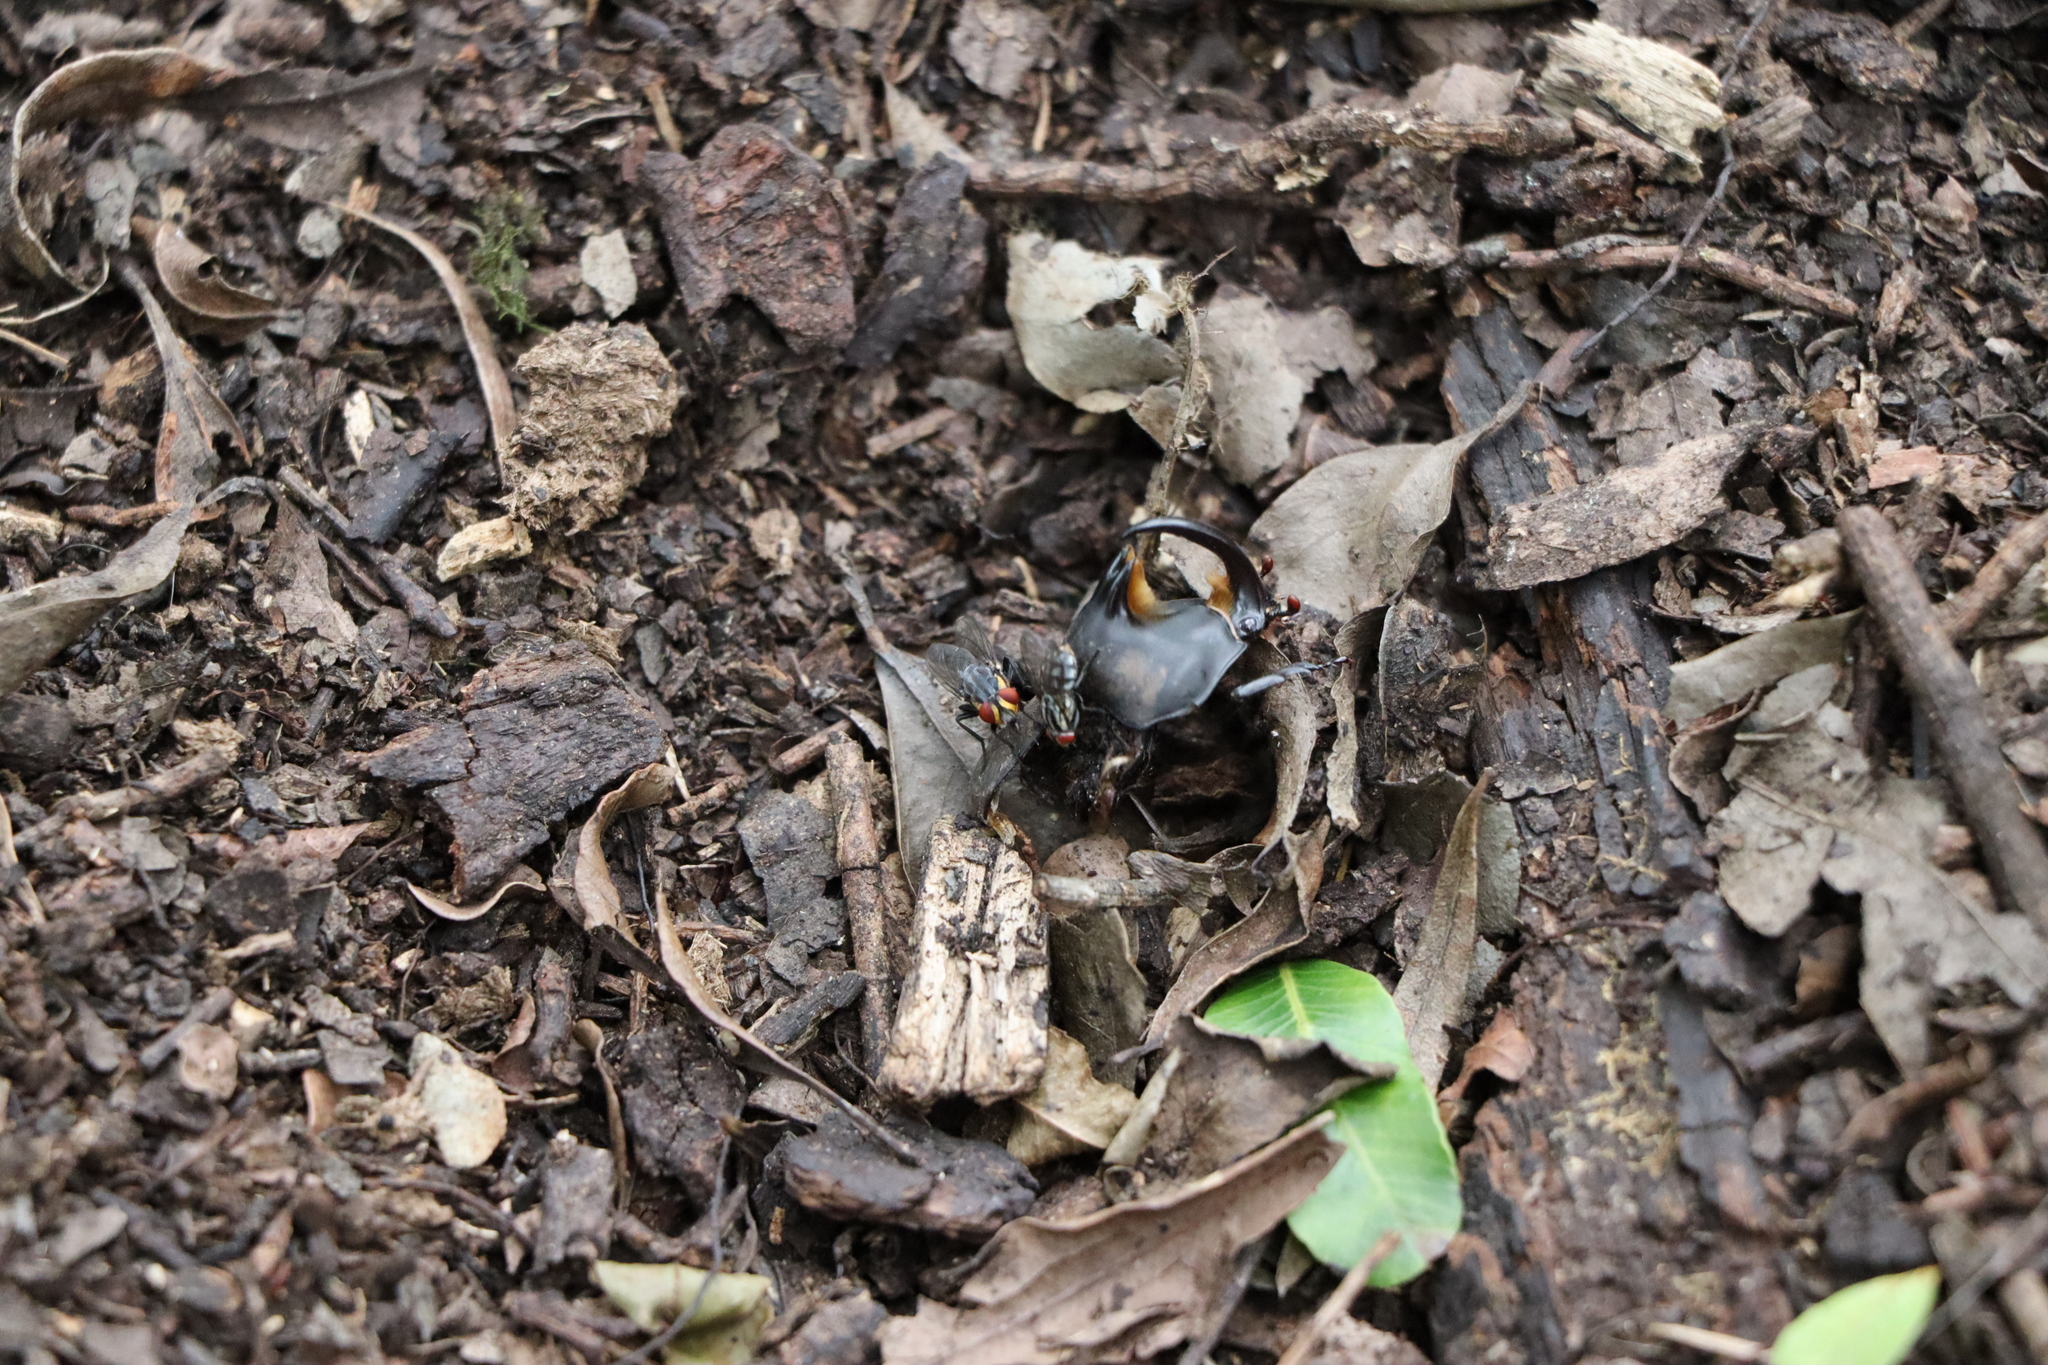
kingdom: Animalia
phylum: Arthropoda
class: Insecta
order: Coleoptera
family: Scarabaeidae
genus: Diloboderus
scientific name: Diloboderus abderus
